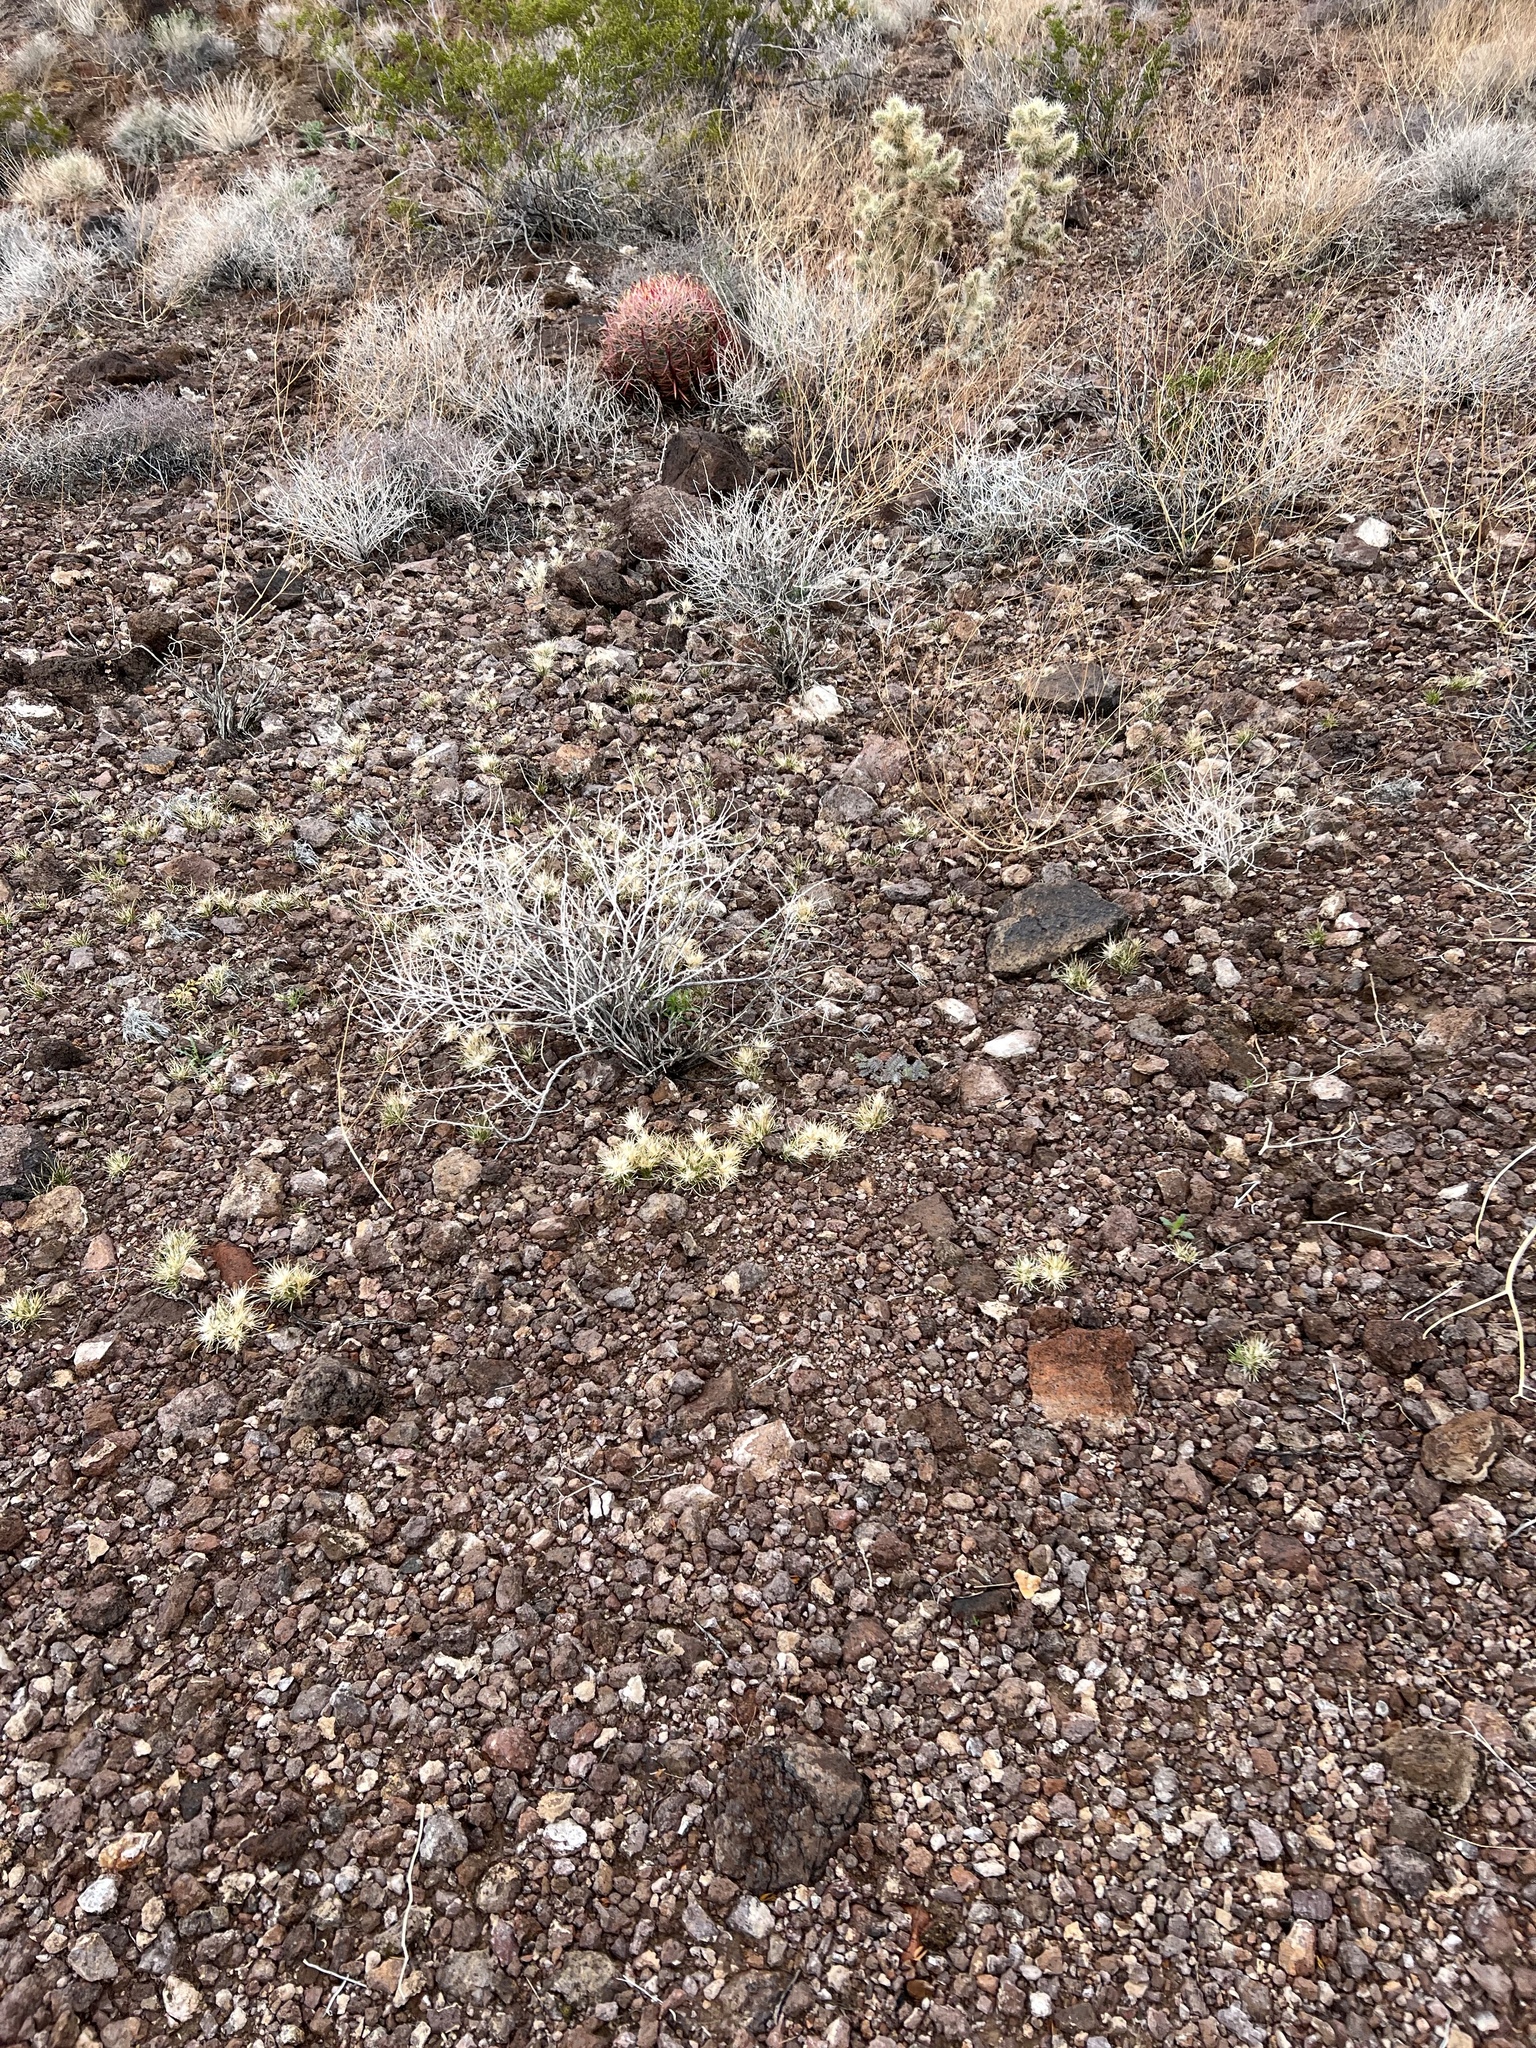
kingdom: Plantae
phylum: Tracheophyta
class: Liliopsida
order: Poales
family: Poaceae
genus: Dasyochloa
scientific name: Dasyochloa pulchella
